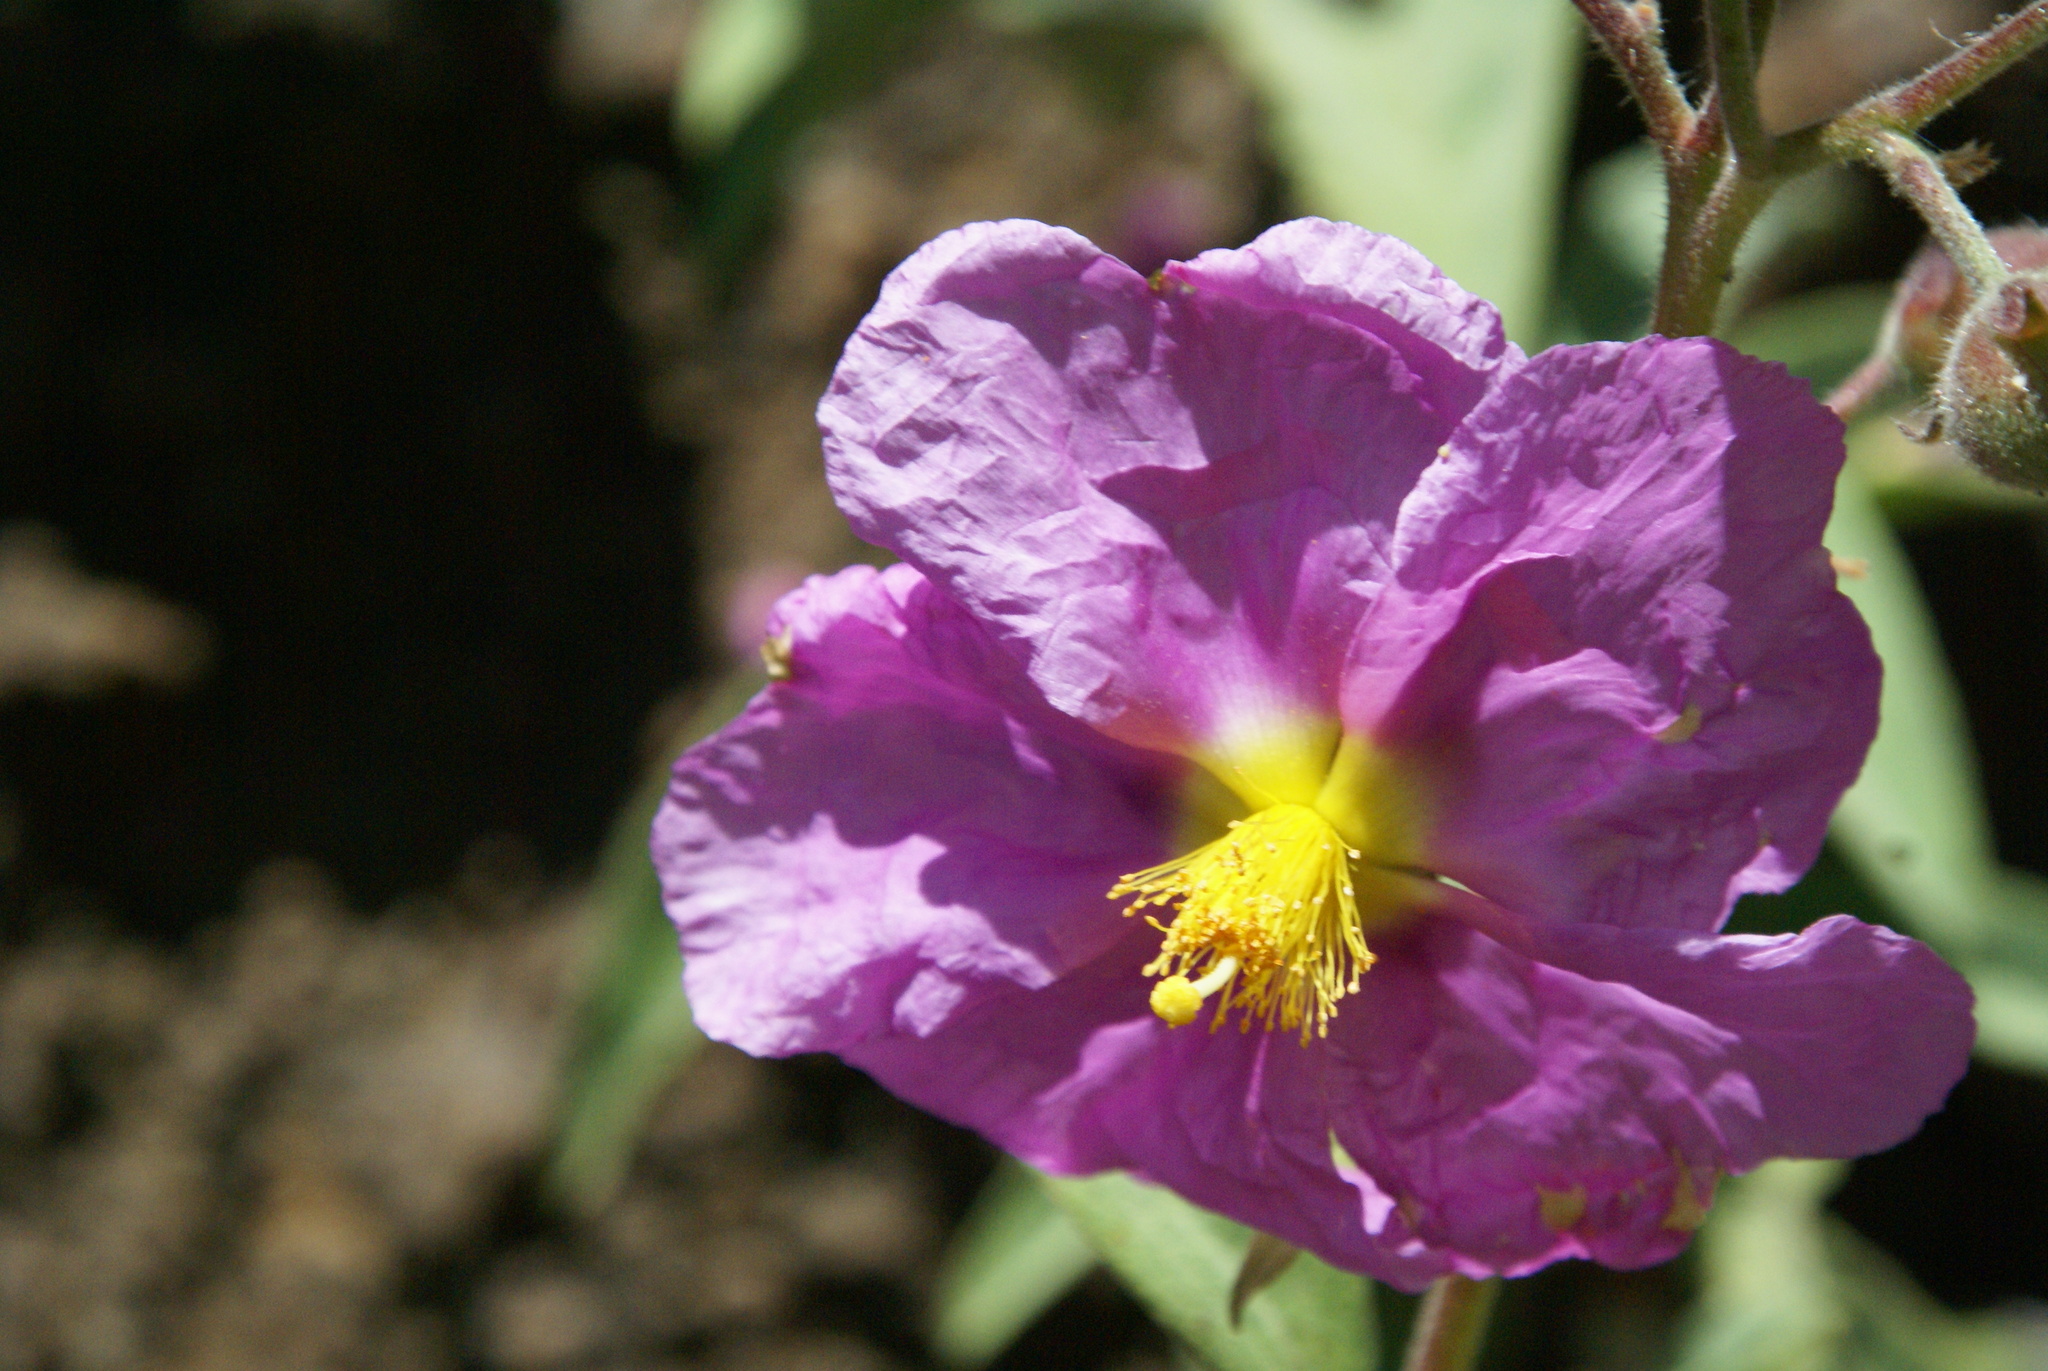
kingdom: Plantae
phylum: Tracheophyta
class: Magnoliopsida
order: Malvales
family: Cistaceae
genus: Cistus
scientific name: Cistus symphytifolius
